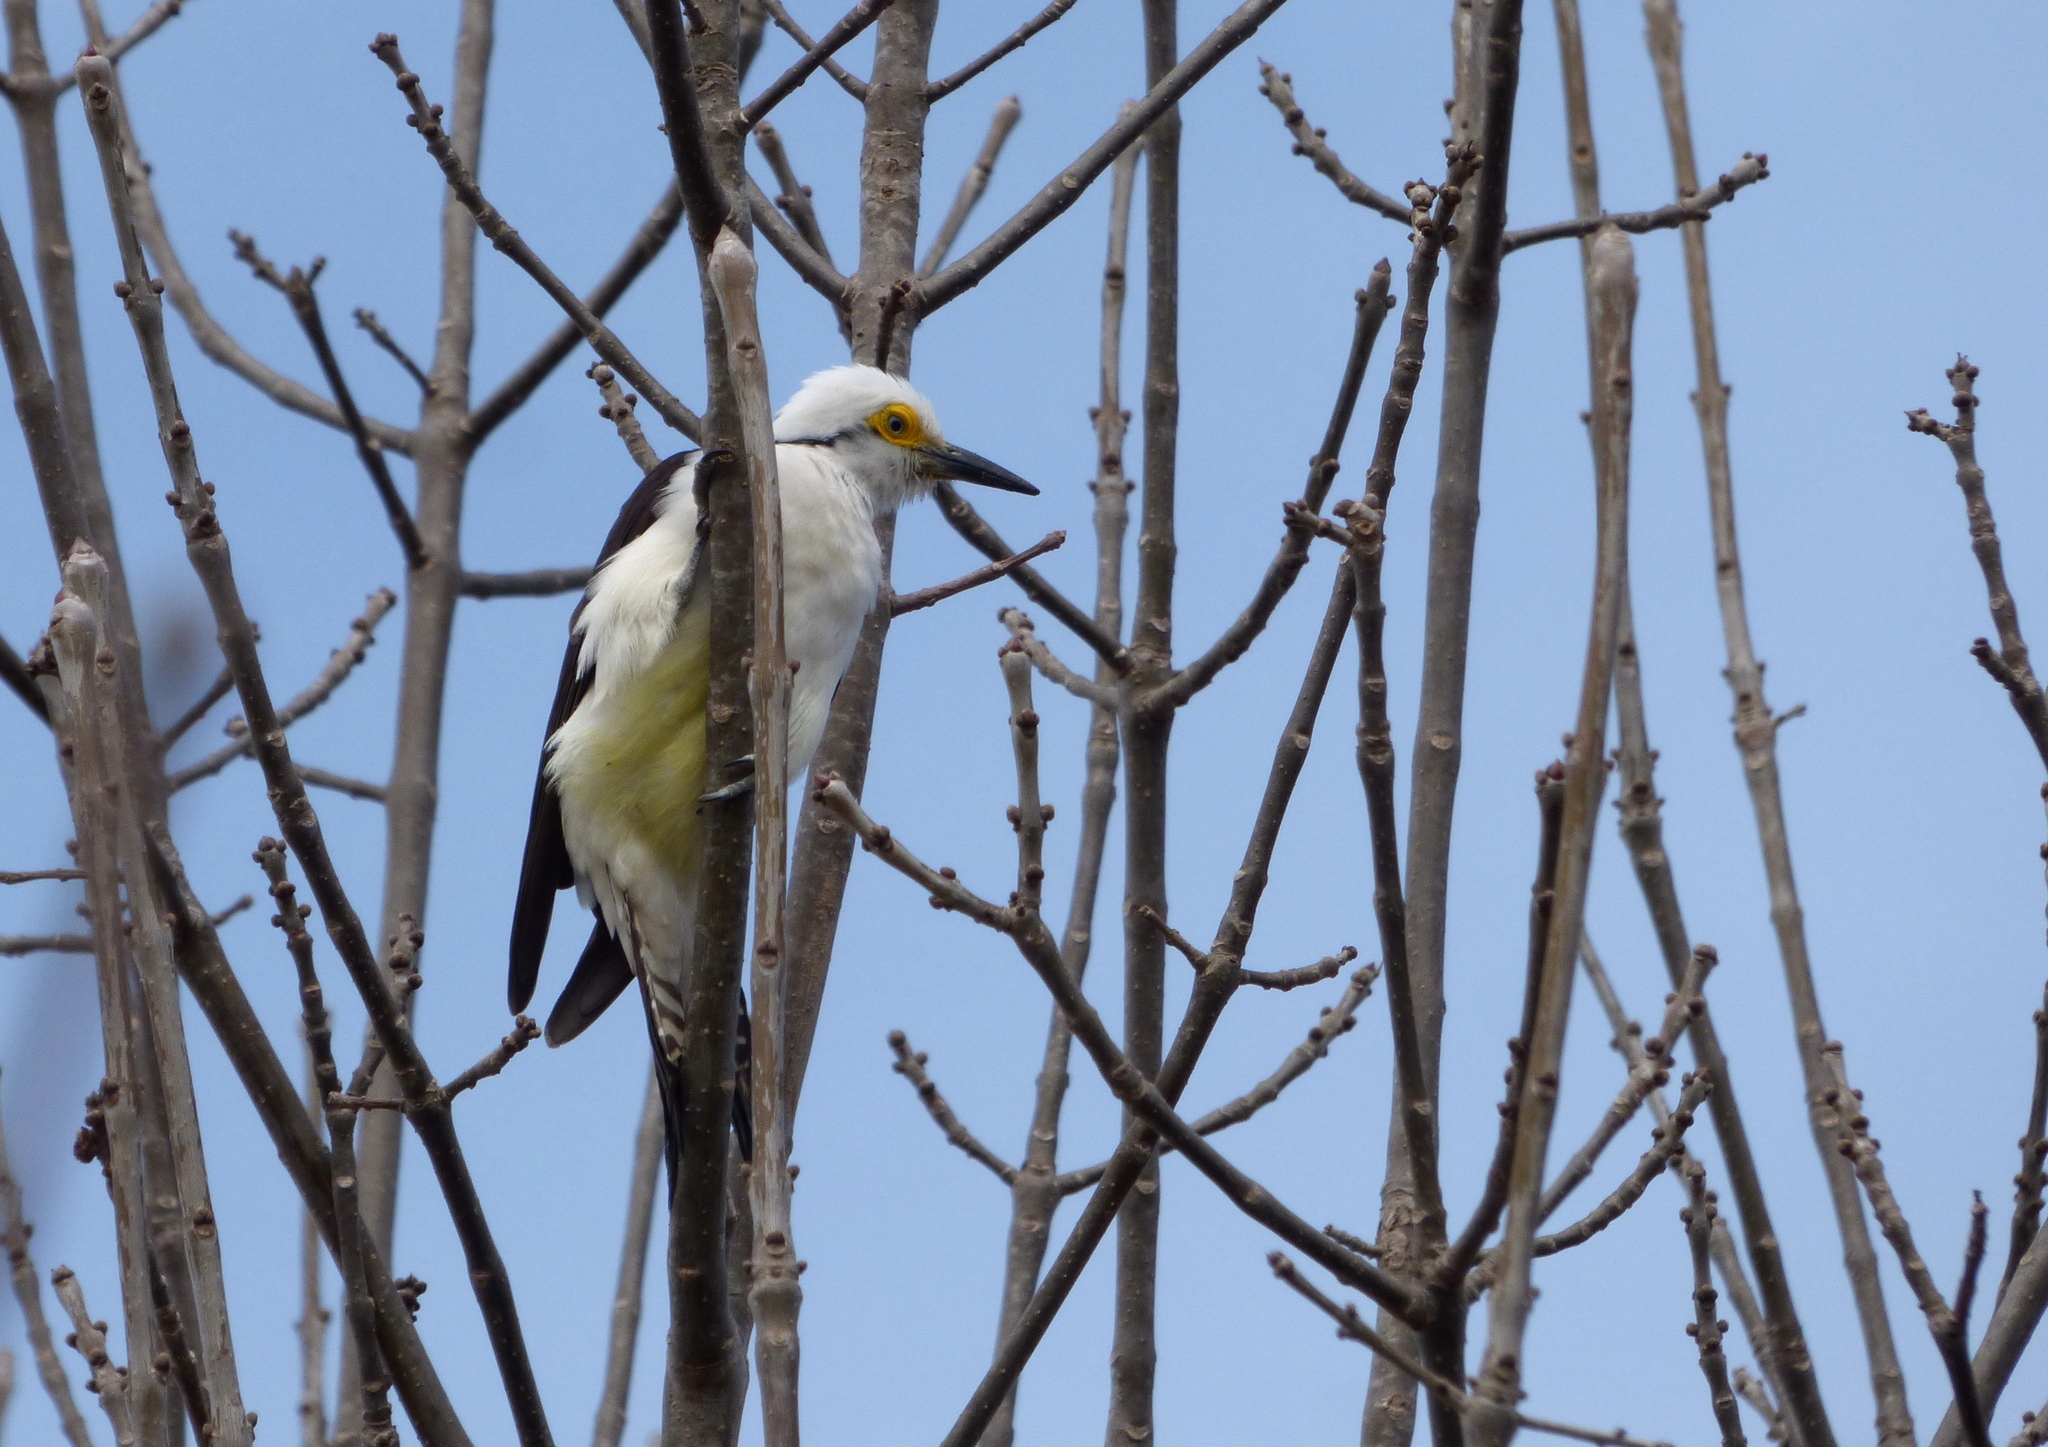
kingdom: Animalia
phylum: Chordata
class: Aves
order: Piciformes
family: Picidae
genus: Melanerpes
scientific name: Melanerpes candidus
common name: White woodpecker
